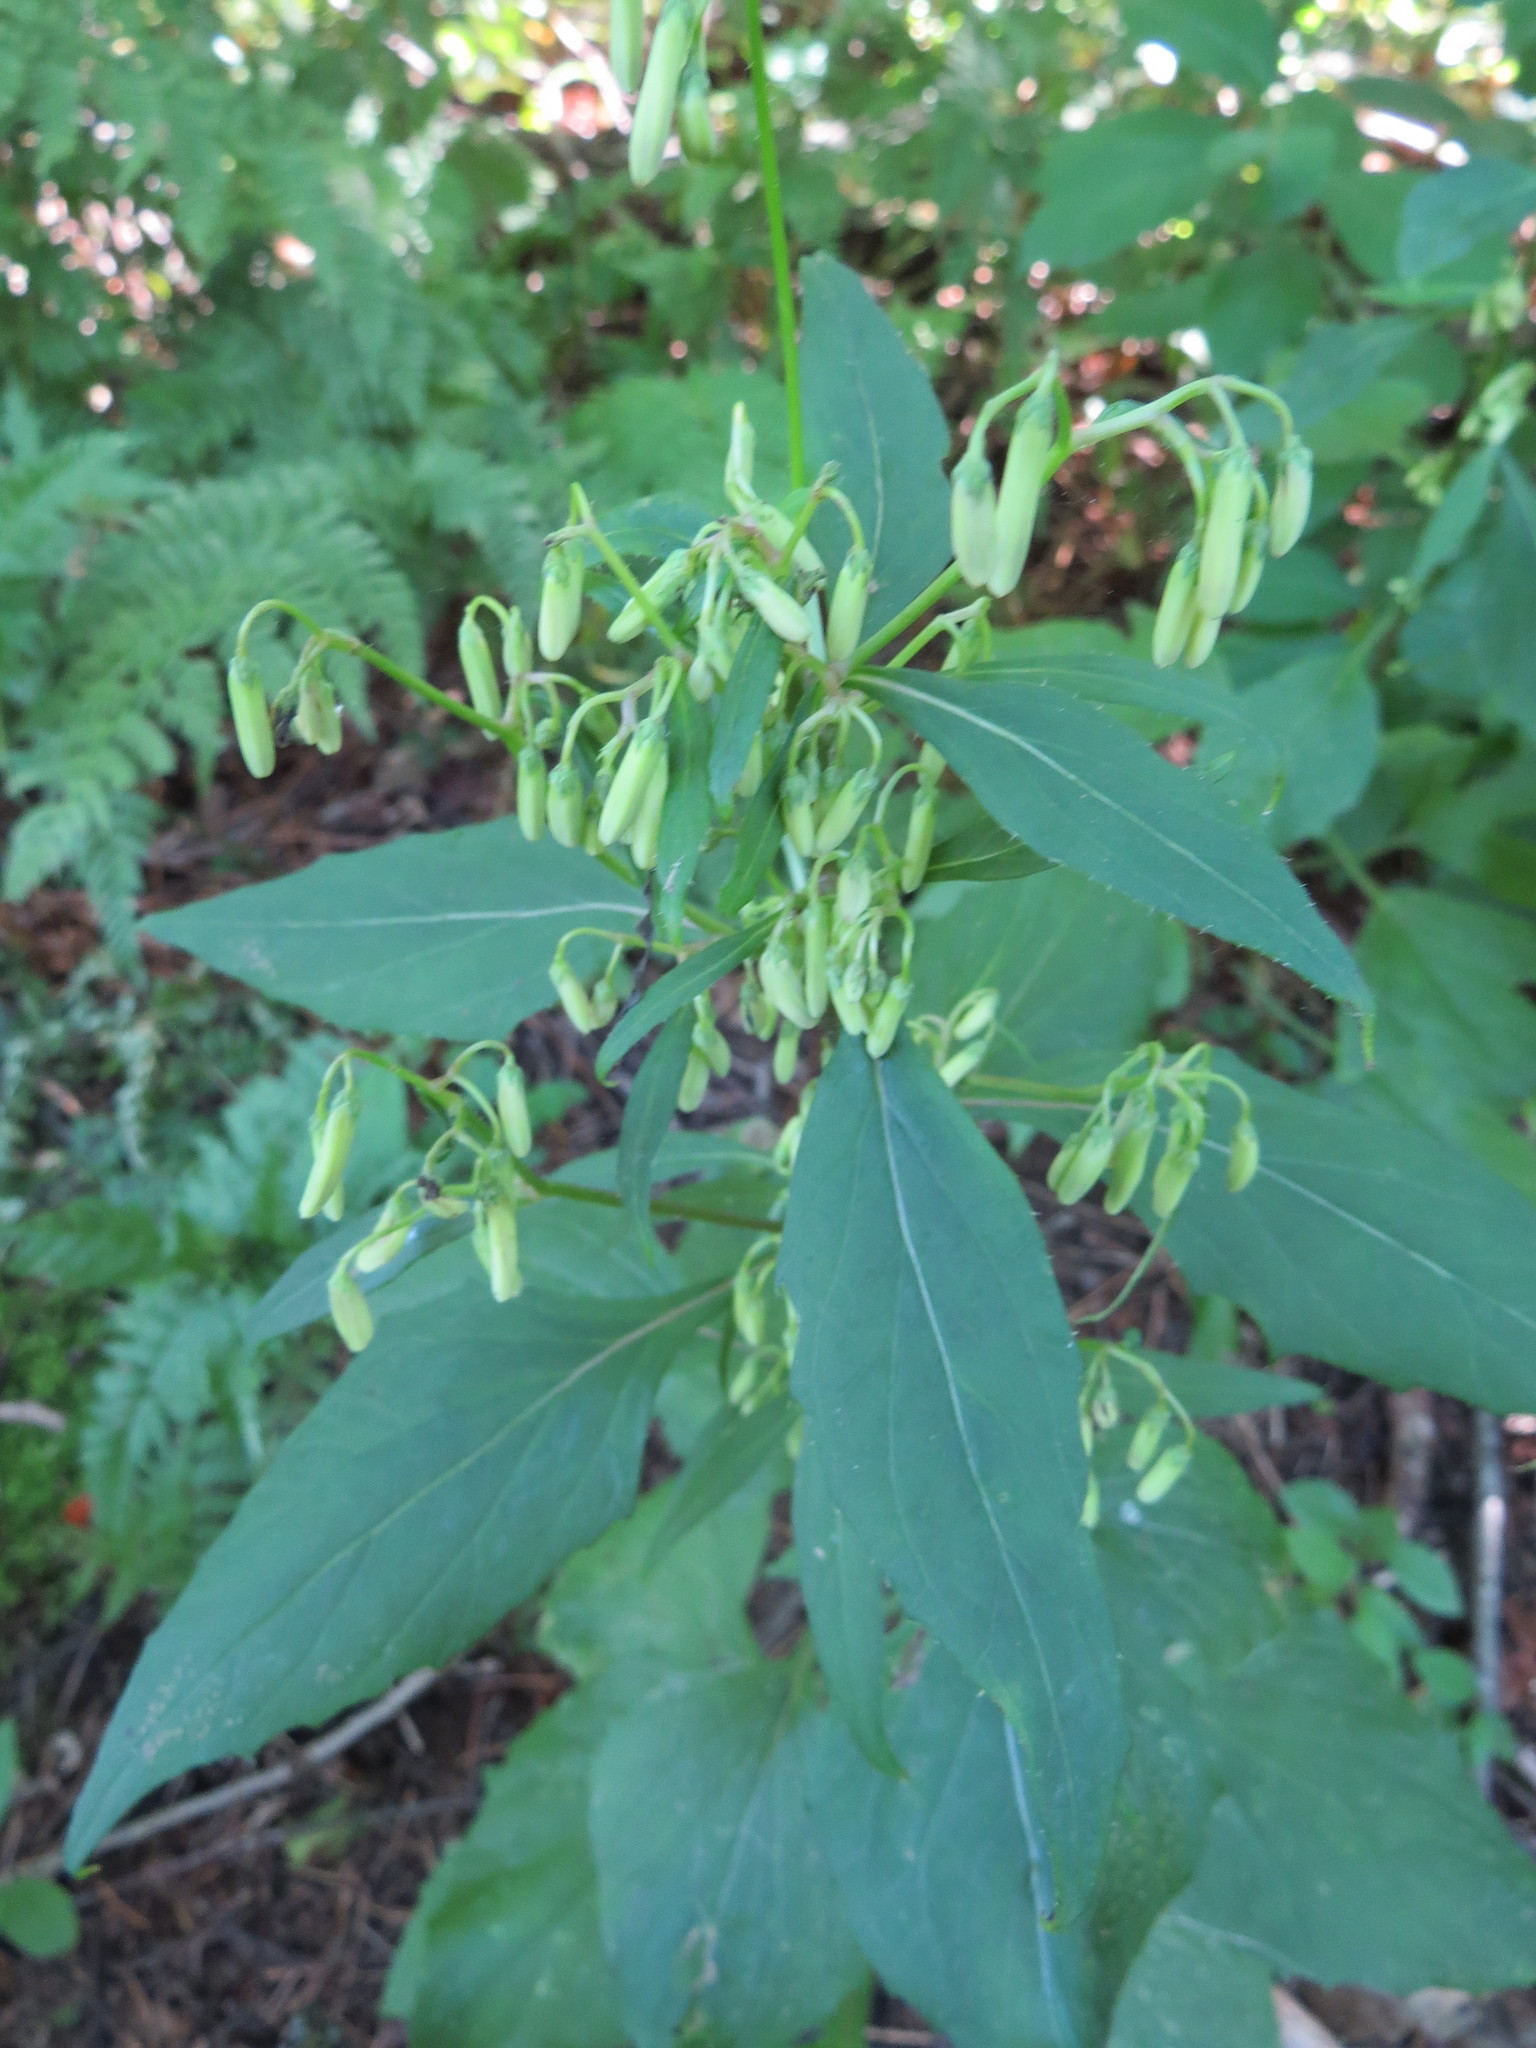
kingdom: Plantae
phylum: Tracheophyta
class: Magnoliopsida
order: Asterales
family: Asteraceae
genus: Nabalus
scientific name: Nabalus altissima
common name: Tall rattlesnakeroot
